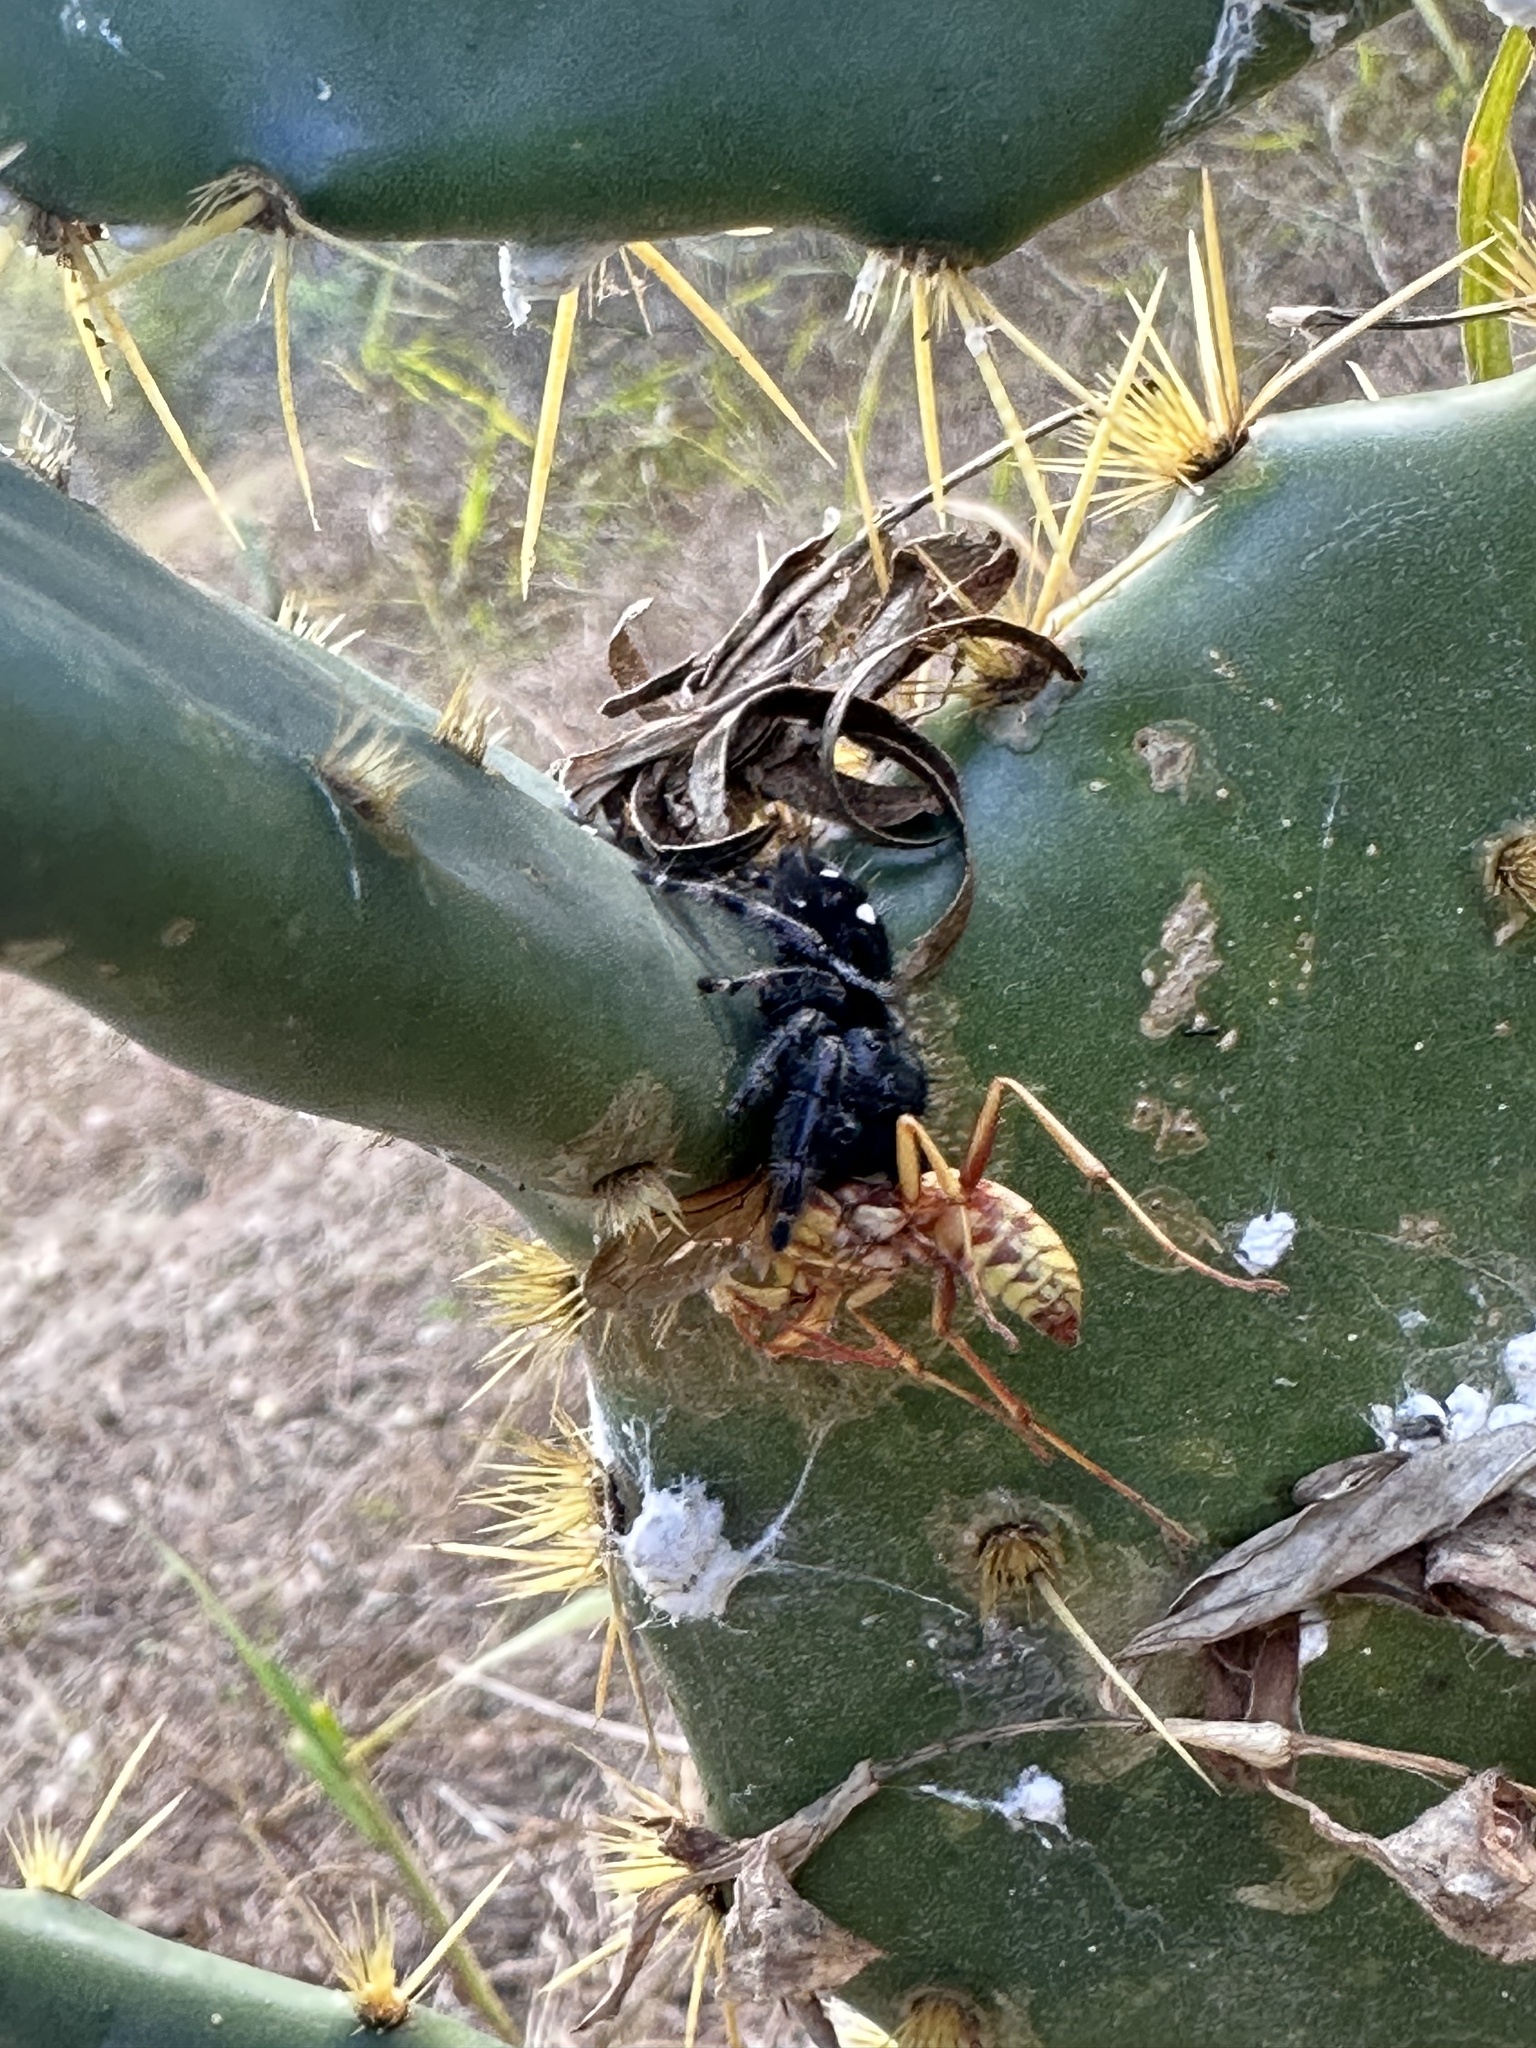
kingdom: Animalia
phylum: Arthropoda
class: Arachnida
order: Araneae
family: Salticidae
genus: Phidippus
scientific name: Phidippus audax
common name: Bold jumper
